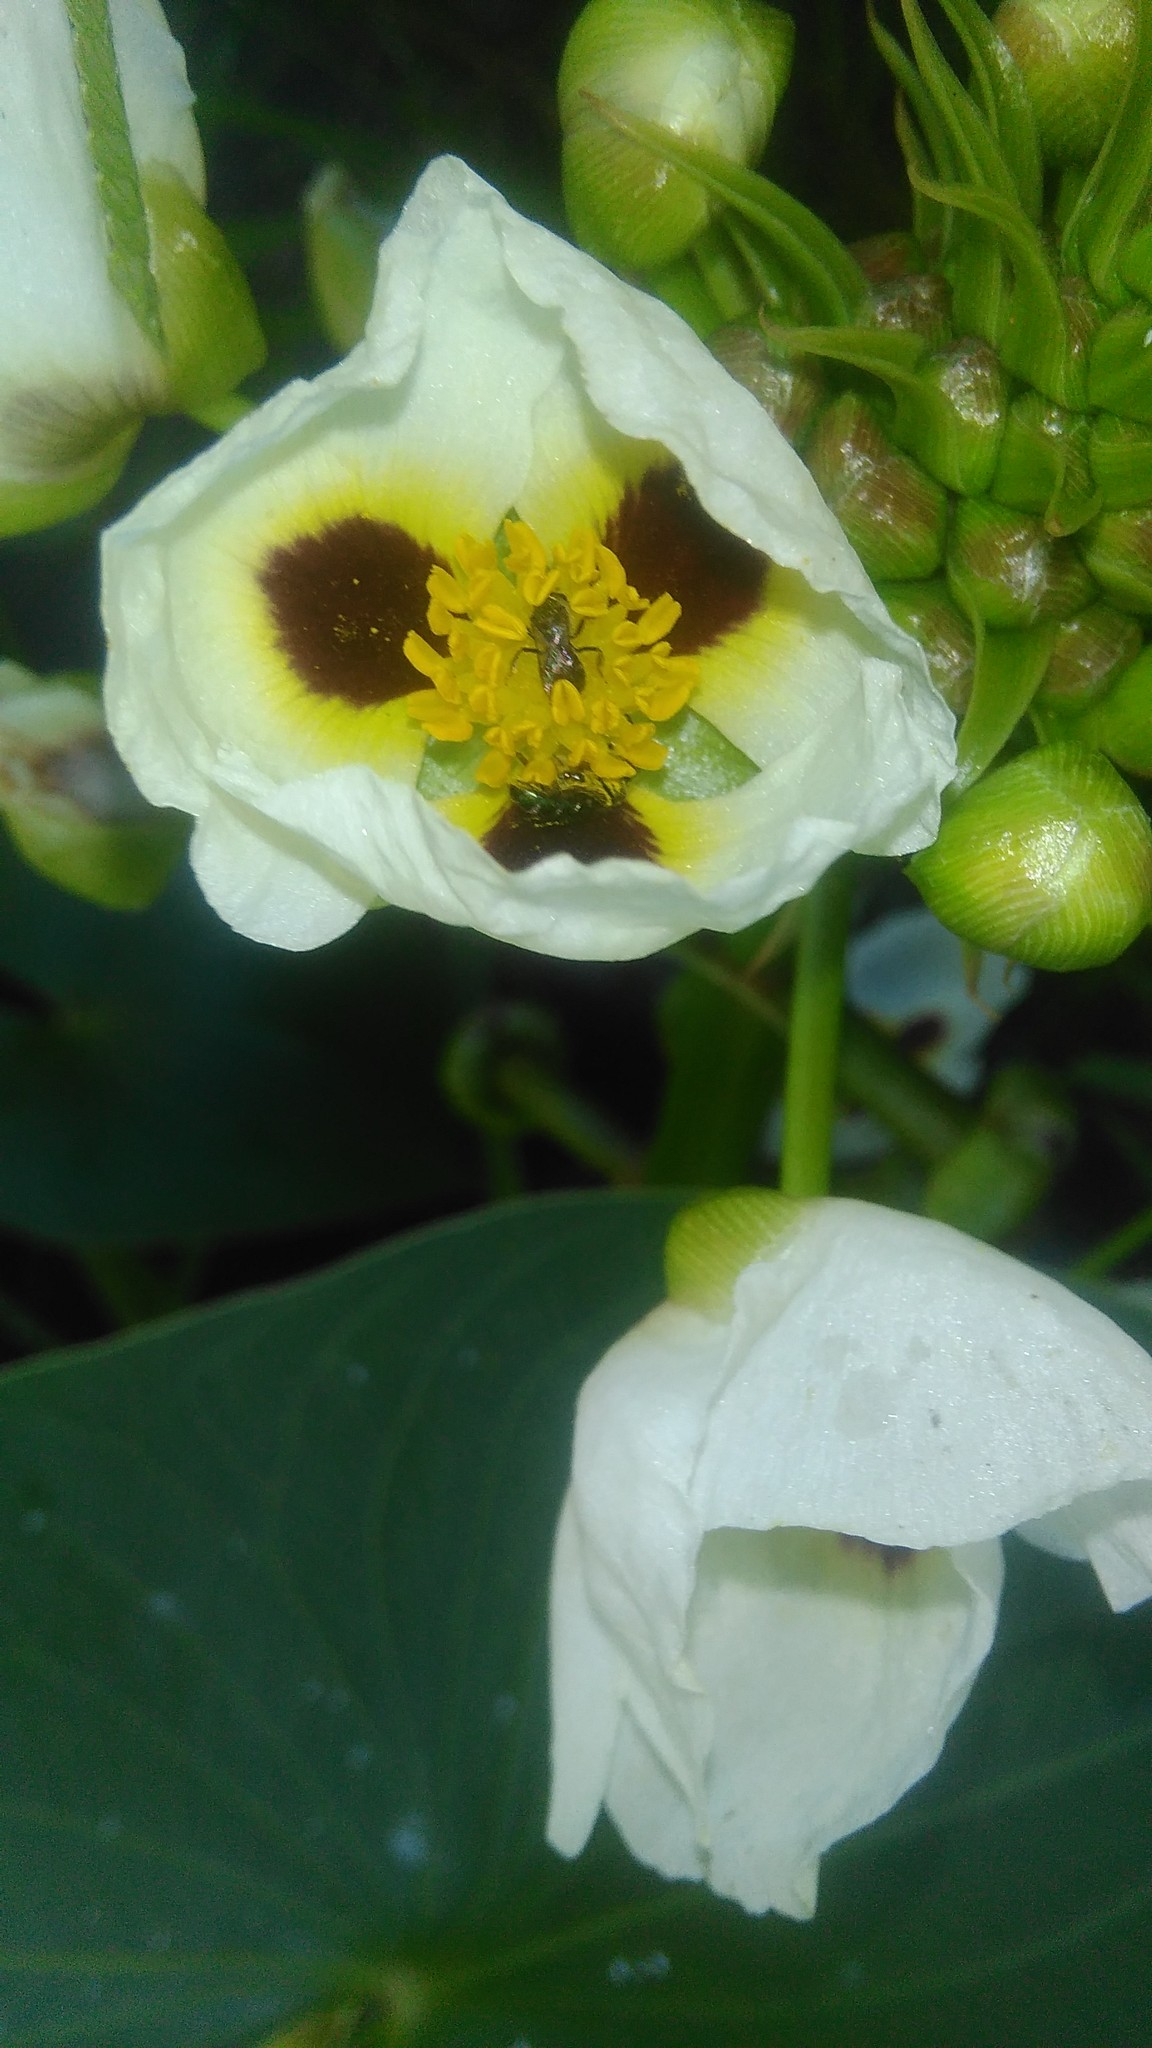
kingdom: Plantae
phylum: Tracheophyta
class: Liliopsida
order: Alismatales
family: Alismataceae
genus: Sagittaria
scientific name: Sagittaria montevidensis
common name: Giant arrowhead
